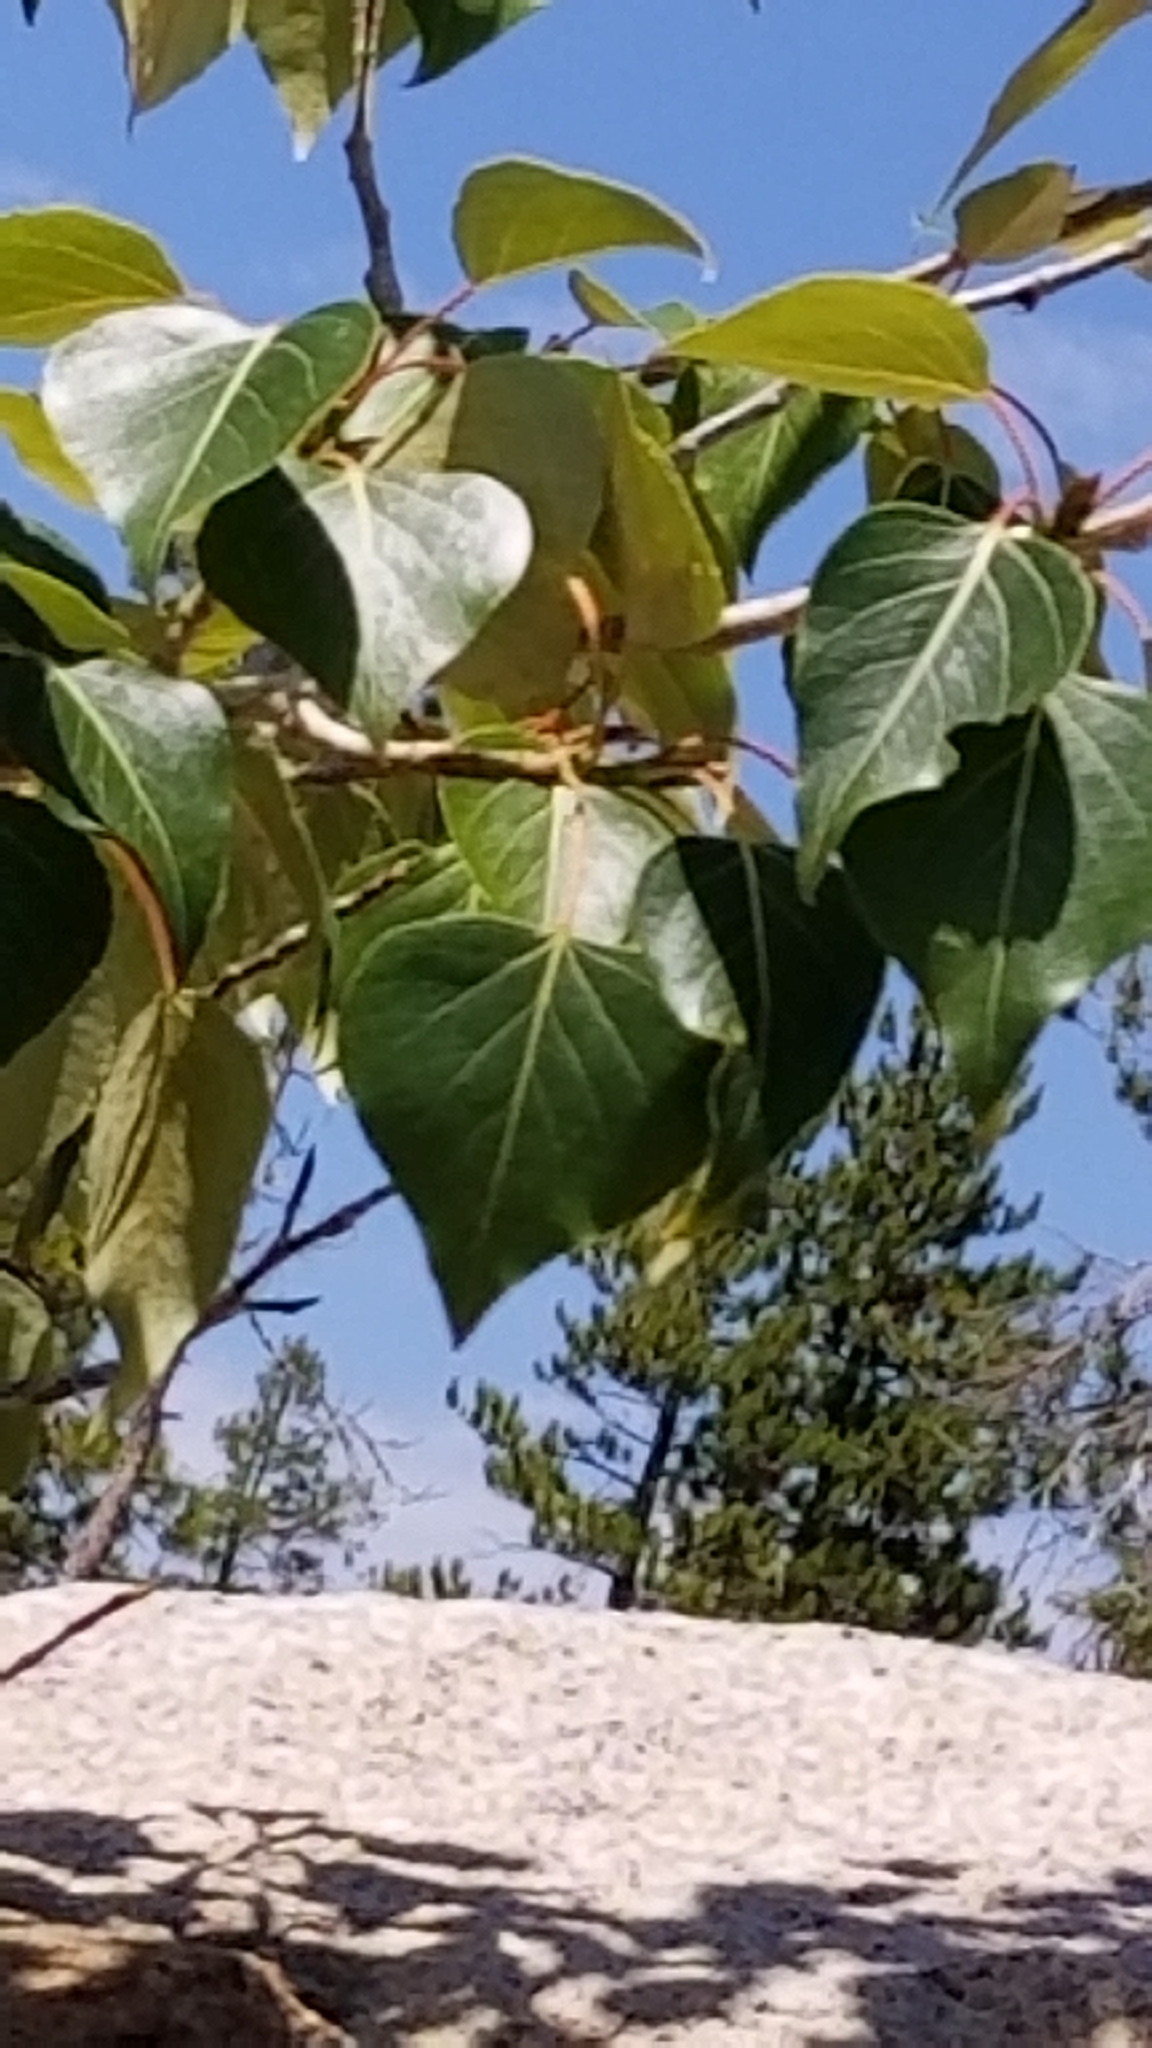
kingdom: Plantae
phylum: Tracheophyta
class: Magnoliopsida
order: Malpighiales
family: Salicaceae
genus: Populus
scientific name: Populus trichocarpa
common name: Black cottonwood
